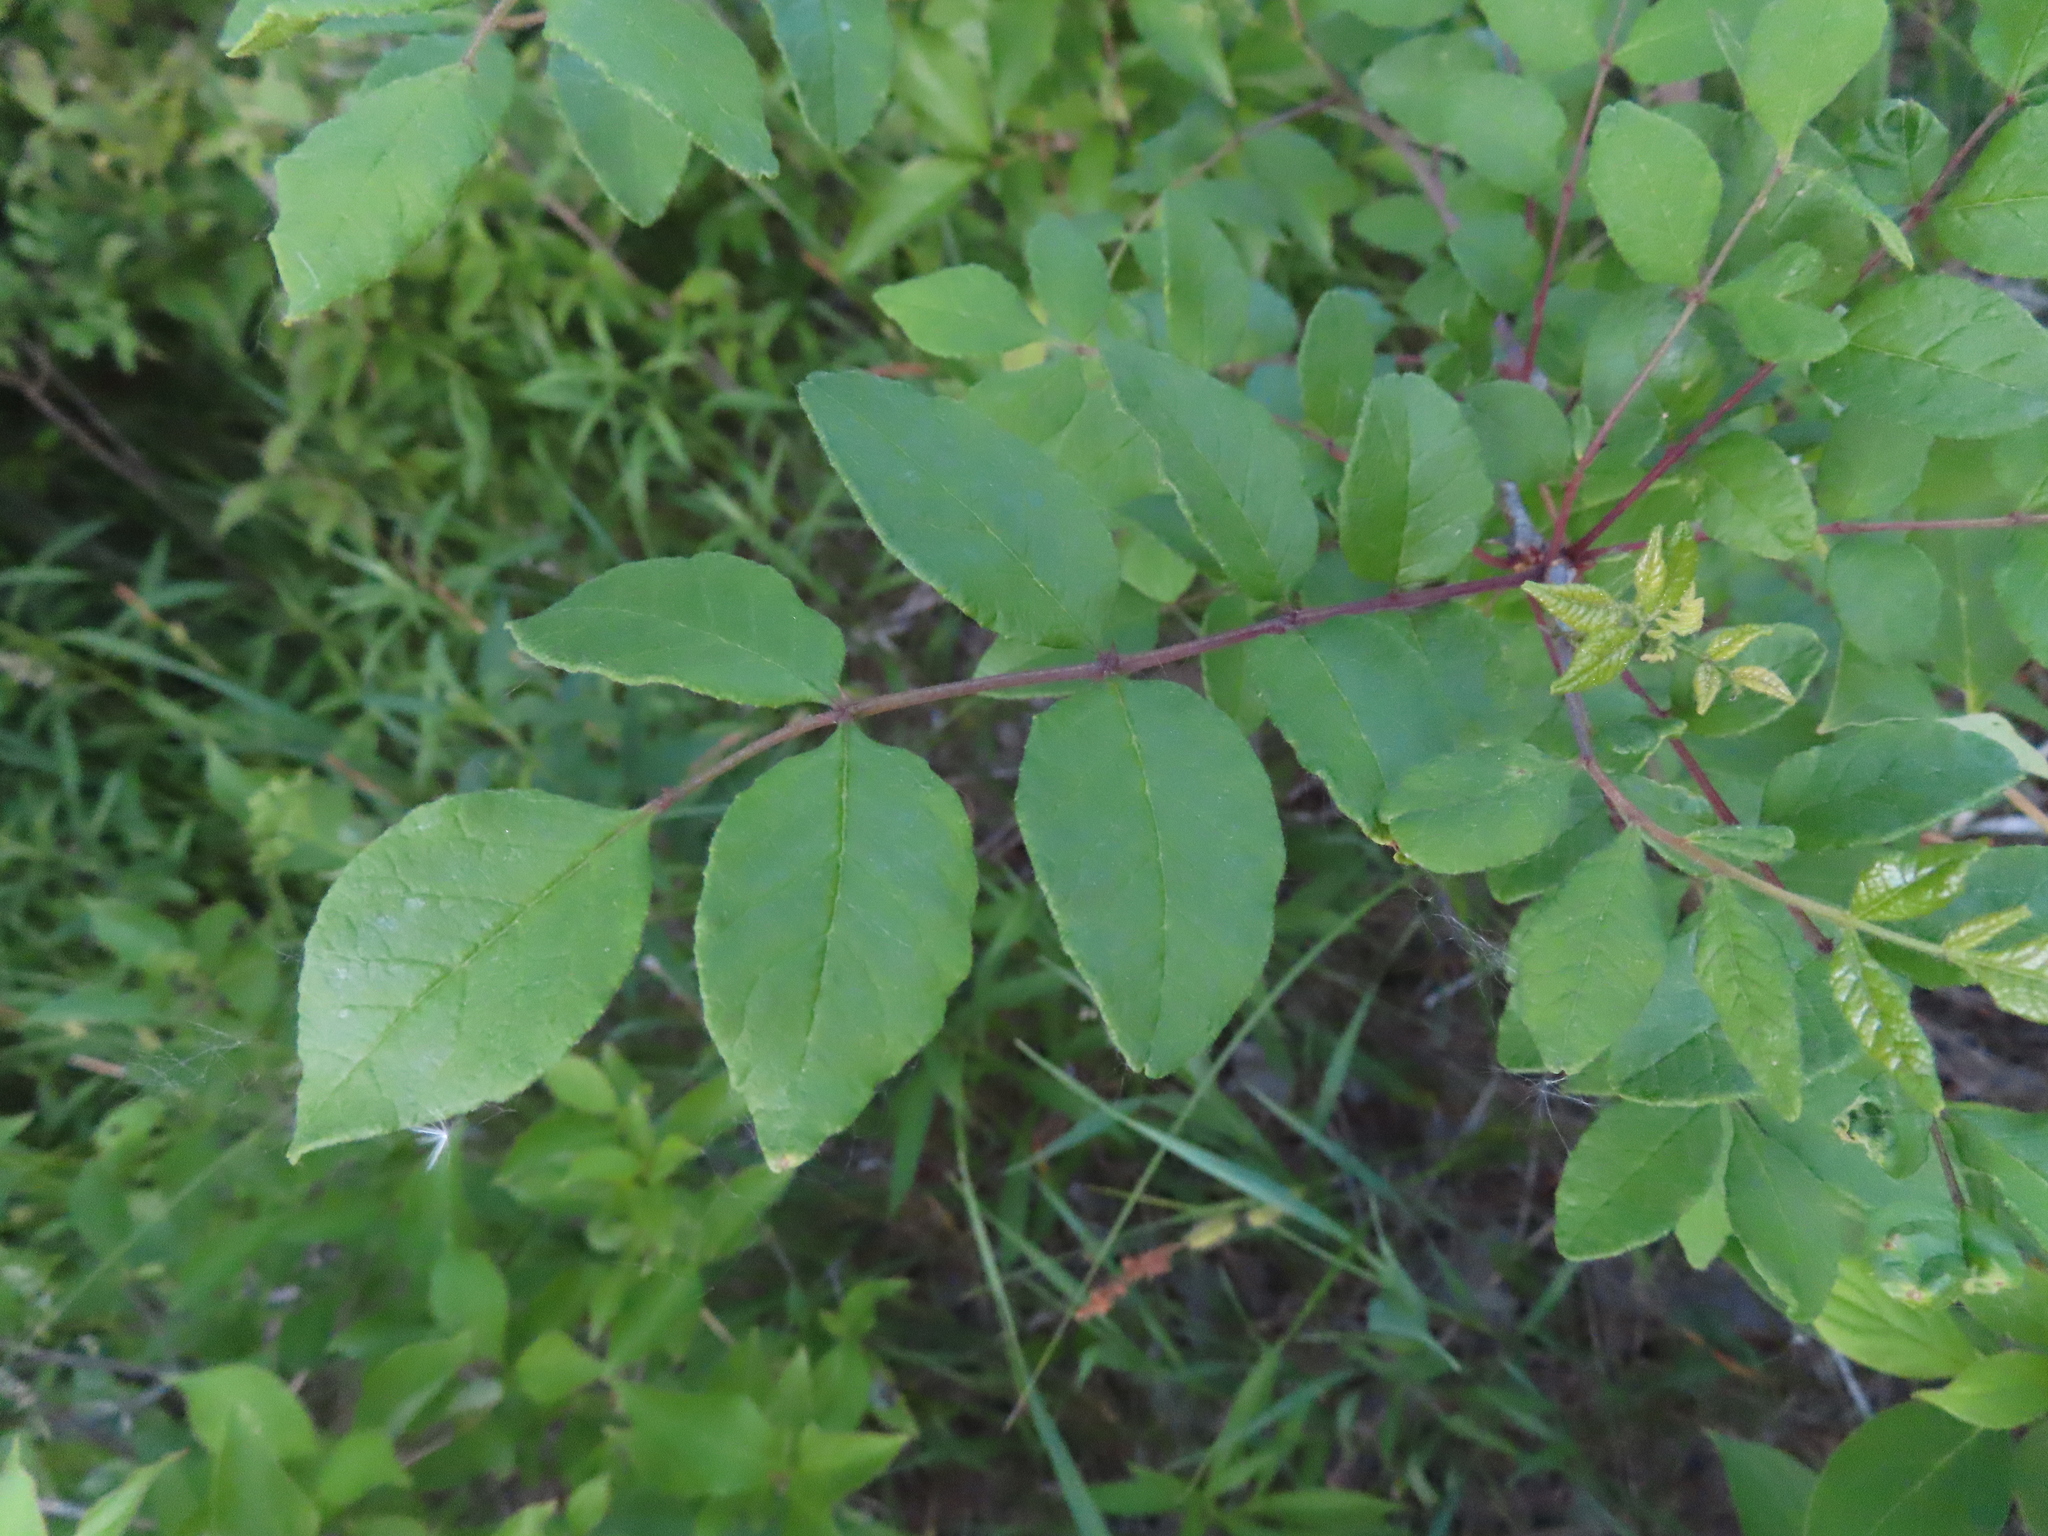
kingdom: Plantae
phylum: Tracheophyta
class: Magnoliopsida
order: Sapindales
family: Rutaceae
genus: Zanthoxylum
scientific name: Zanthoxylum americanum
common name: Northern prickly-ash
